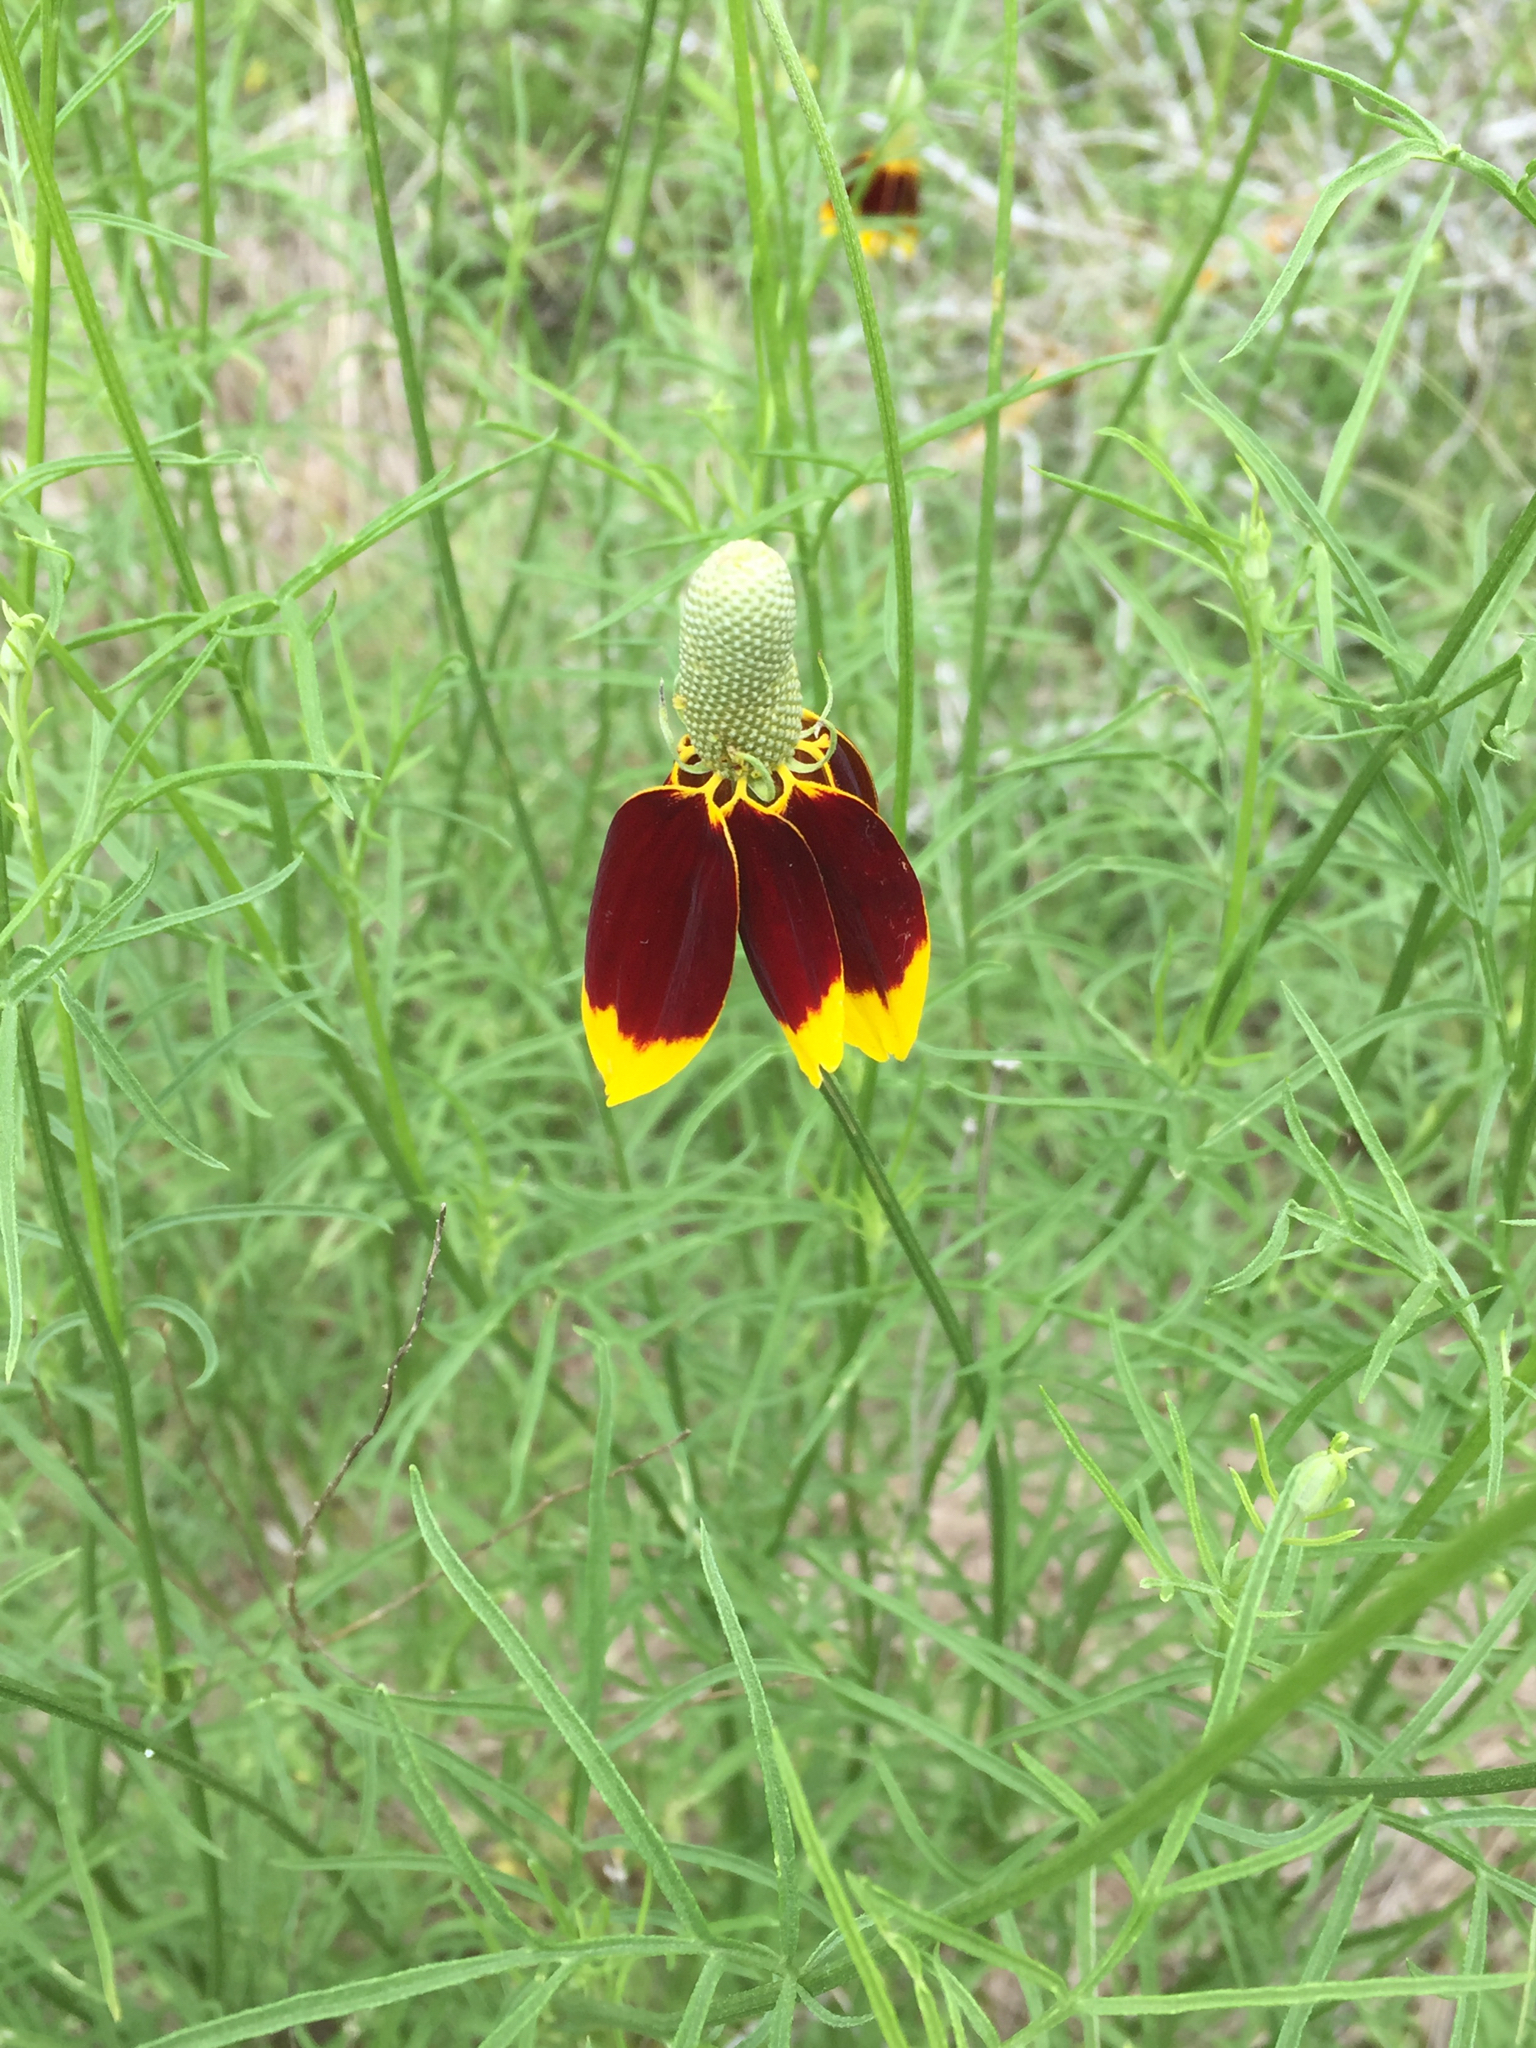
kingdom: Plantae
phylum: Tracheophyta
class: Magnoliopsida
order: Asterales
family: Asteraceae
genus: Ratibida
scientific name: Ratibida columnifera
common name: Prairie coneflower
